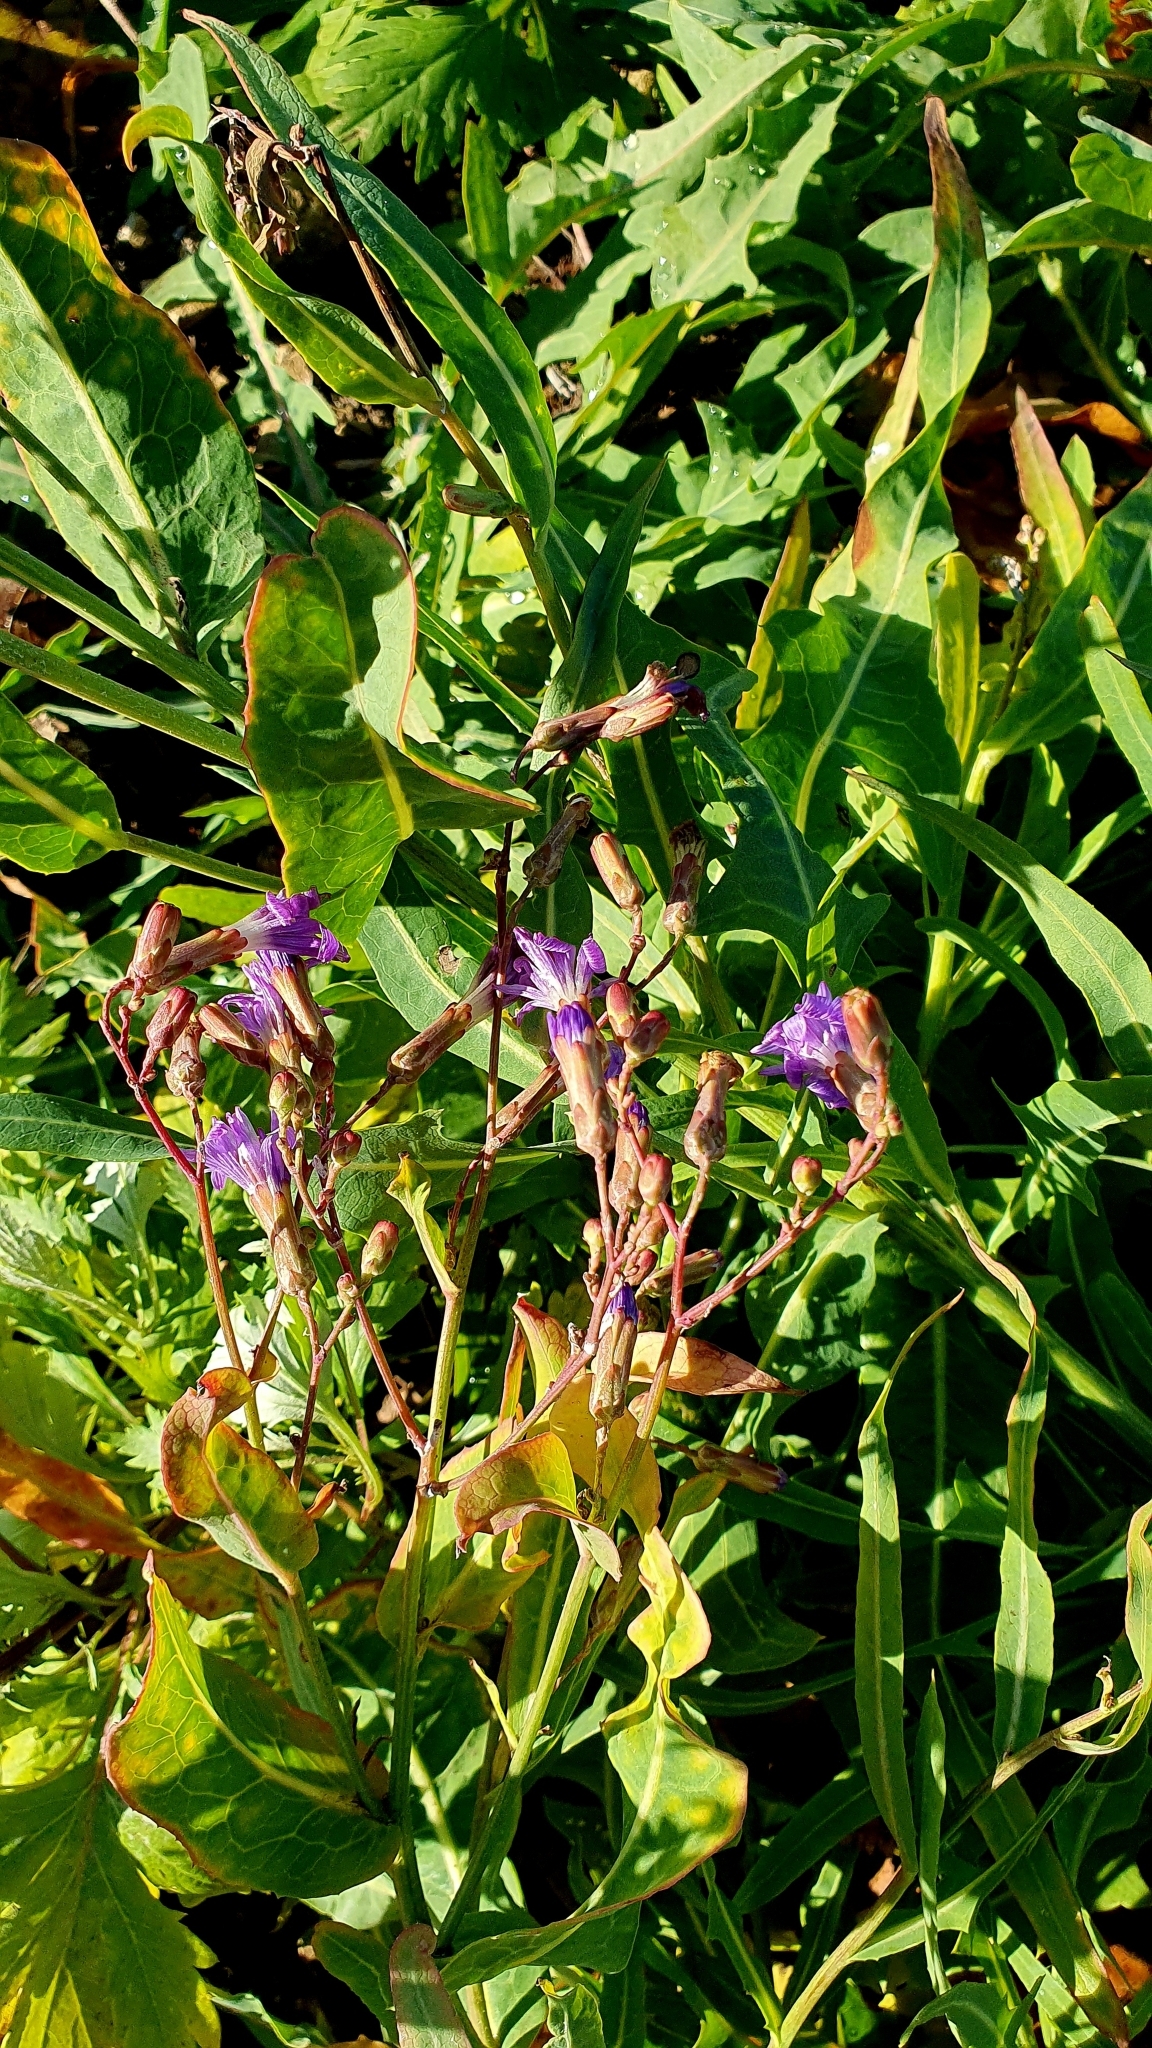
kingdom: Plantae
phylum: Tracheophyta
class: Magnoliopsida
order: Asterales
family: Asteraceae
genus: Lactuca
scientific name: Lactuca tatarica
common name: Blue lettuce
